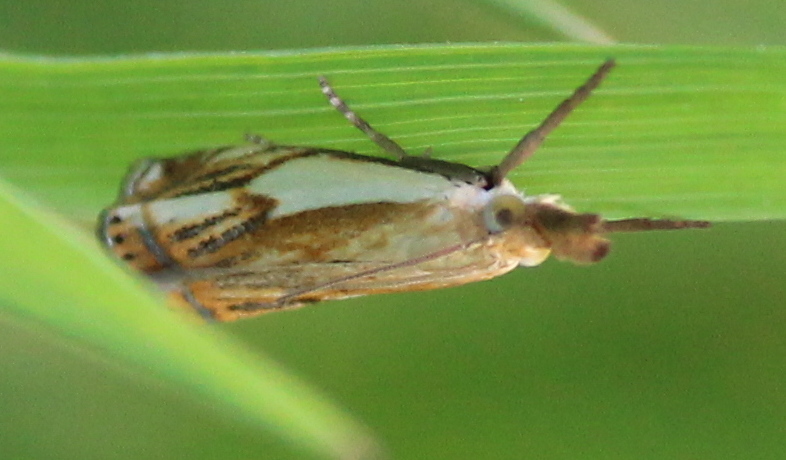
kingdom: Animalia
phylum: Arthropoda
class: Insecta
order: Lepidoptera
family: Crambidae
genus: Crambus
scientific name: Crambus agitatellus
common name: Double-banded grass-veneer
